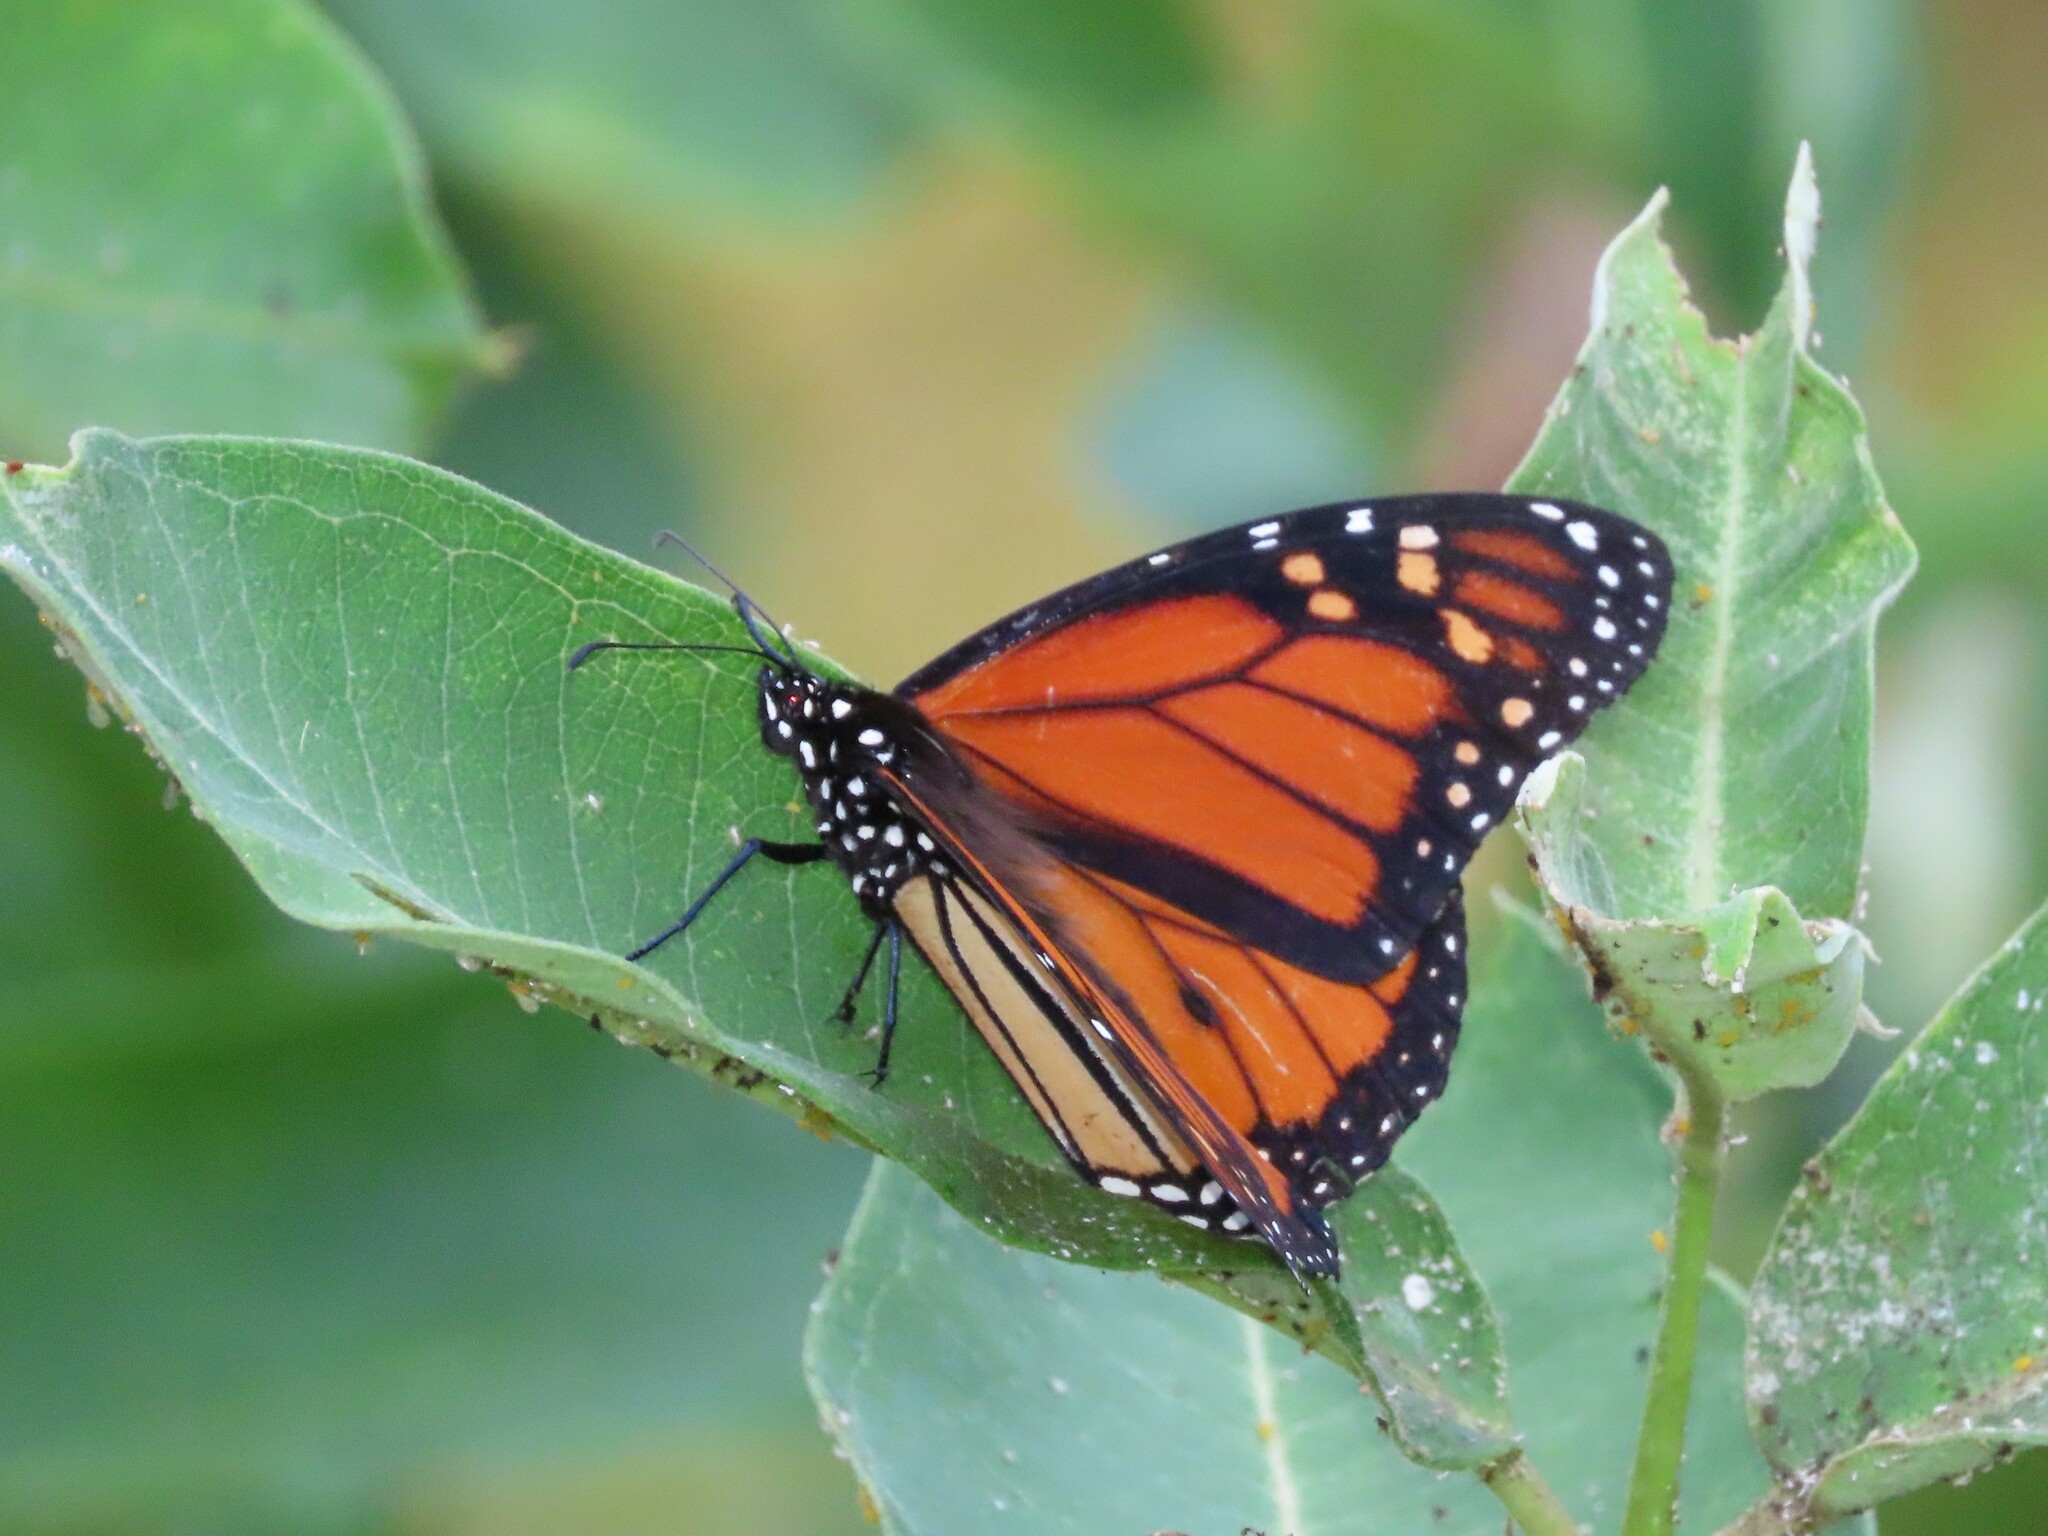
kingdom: Animalia
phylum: Arthropoda
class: Insecta
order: Lepidoptera
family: Nymphalidae
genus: Danaus
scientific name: Danaus plexippus
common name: Monarch
